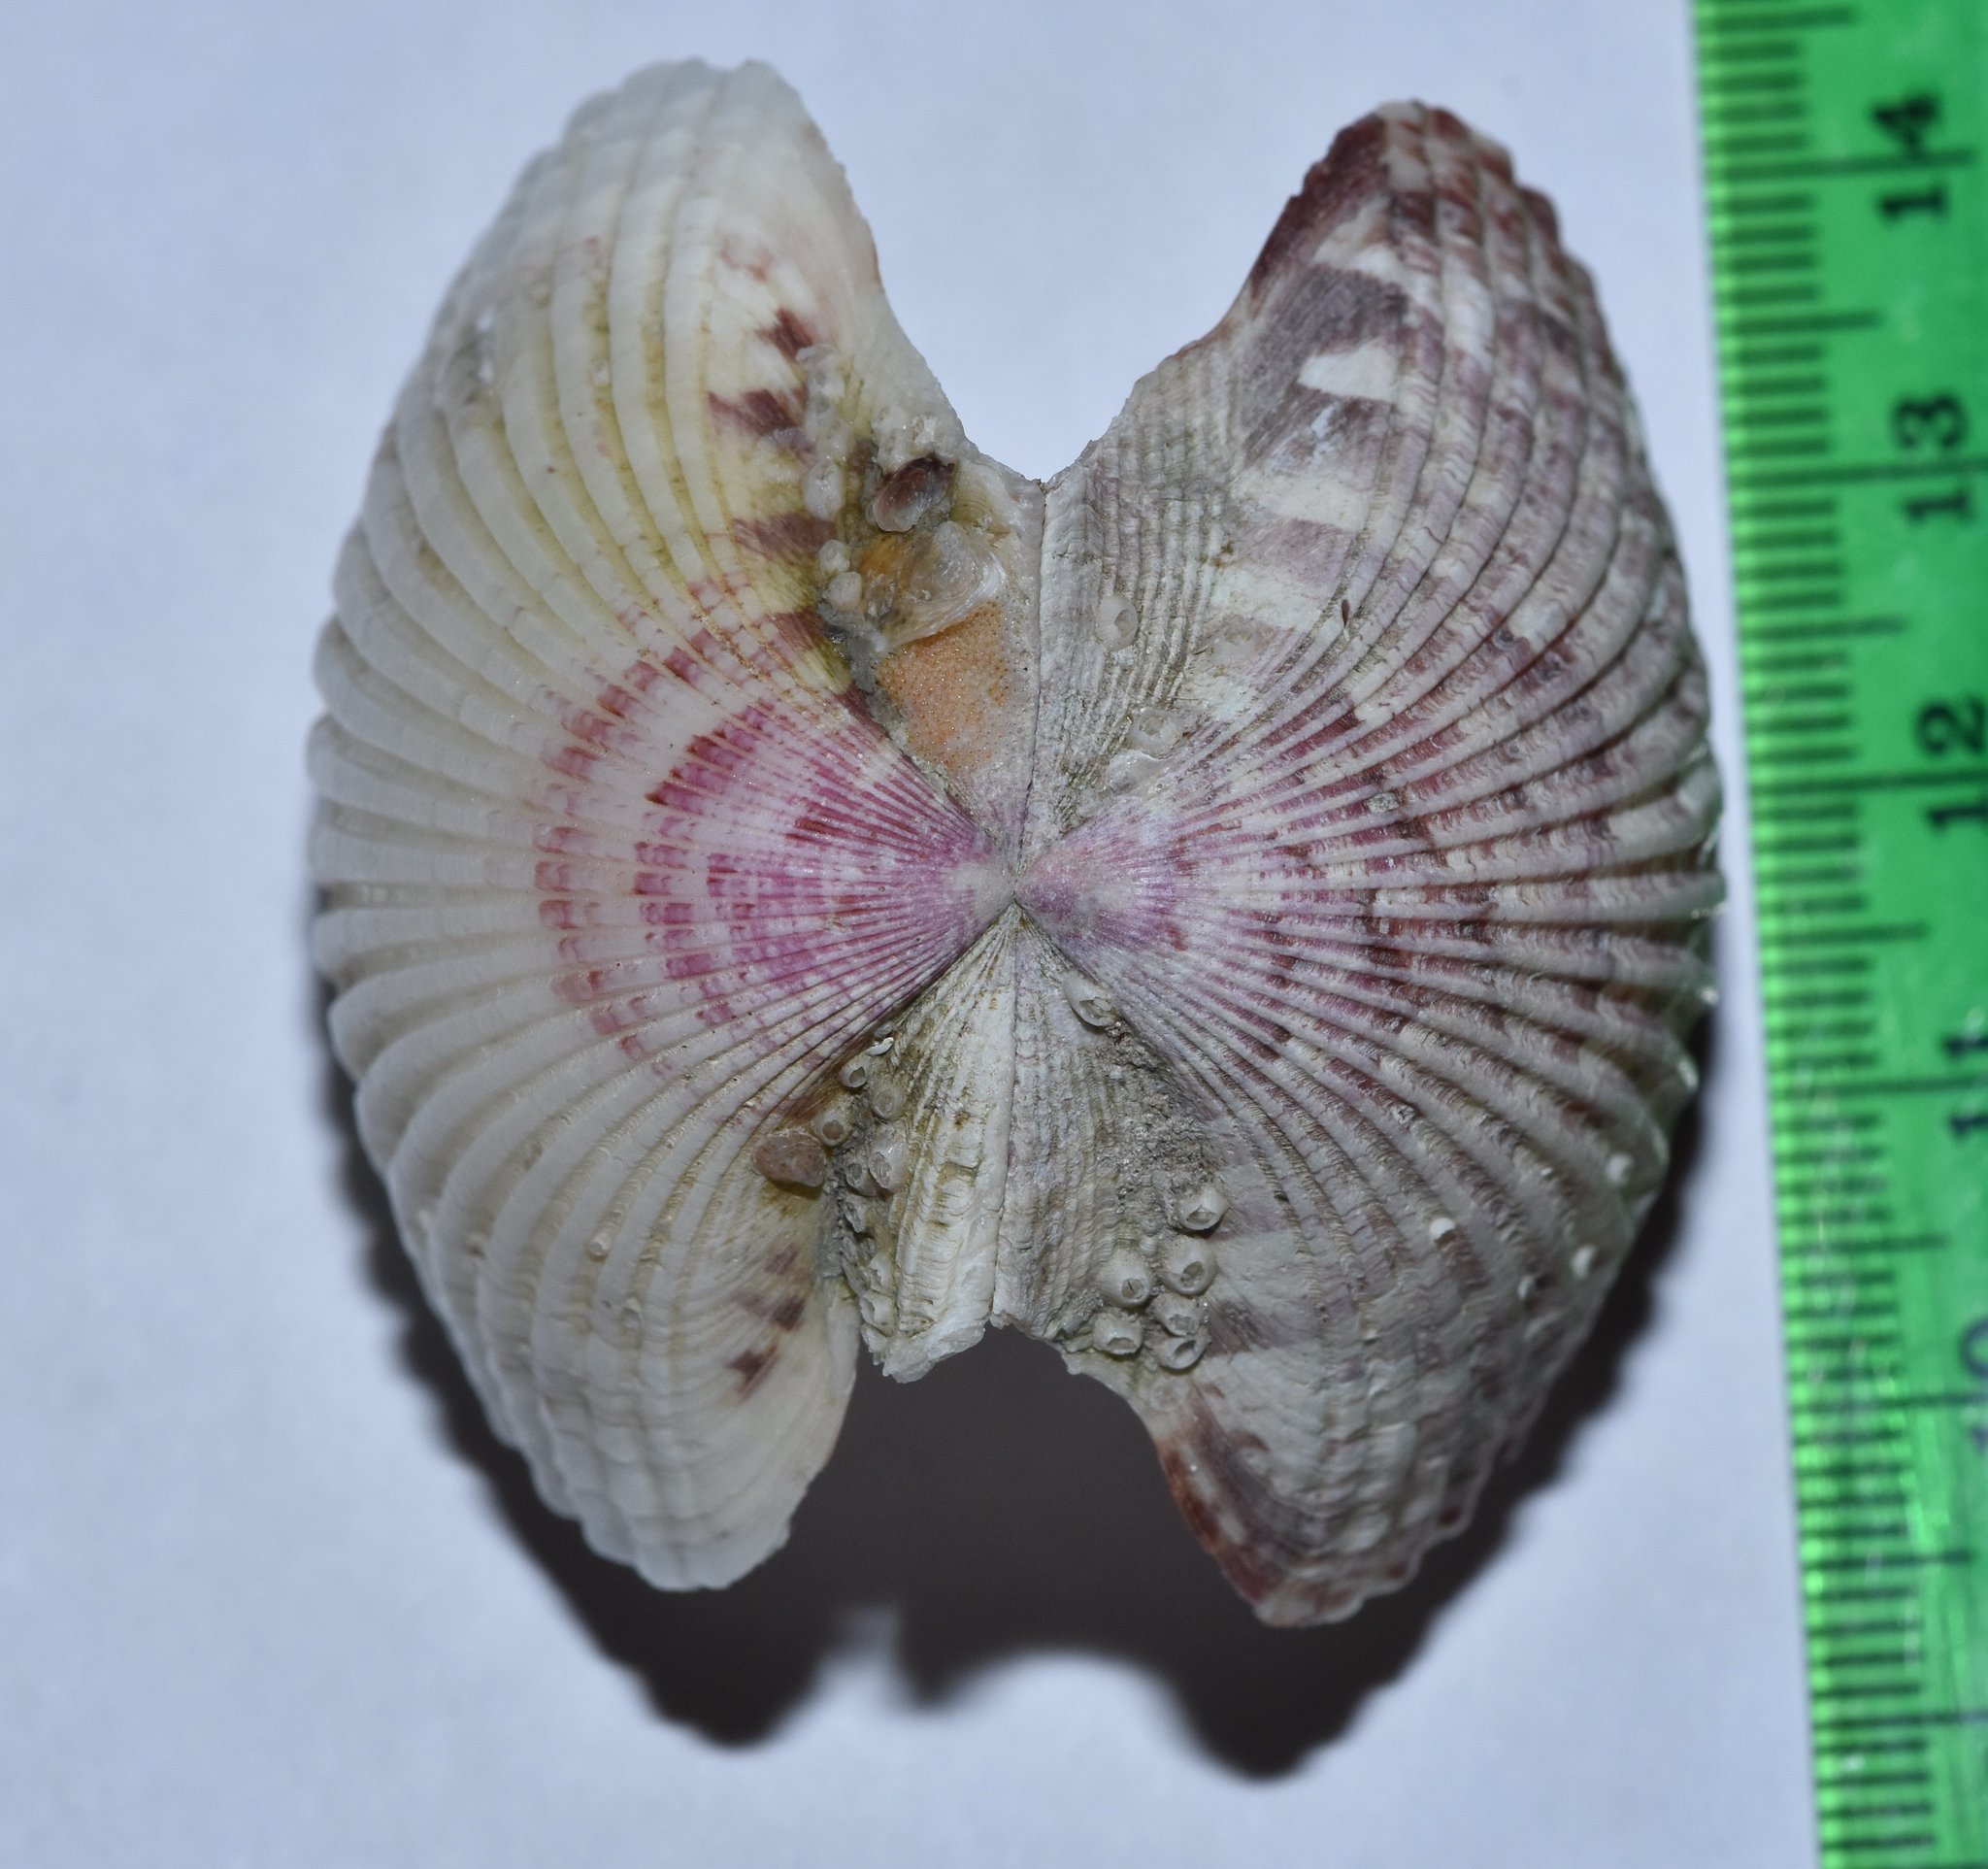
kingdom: Animalia
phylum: Mollusca
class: Bivalvia
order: Pectinida
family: Pectinidae
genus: Argopecten
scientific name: Argopecten gibbus
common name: Atlantic calico scallop
